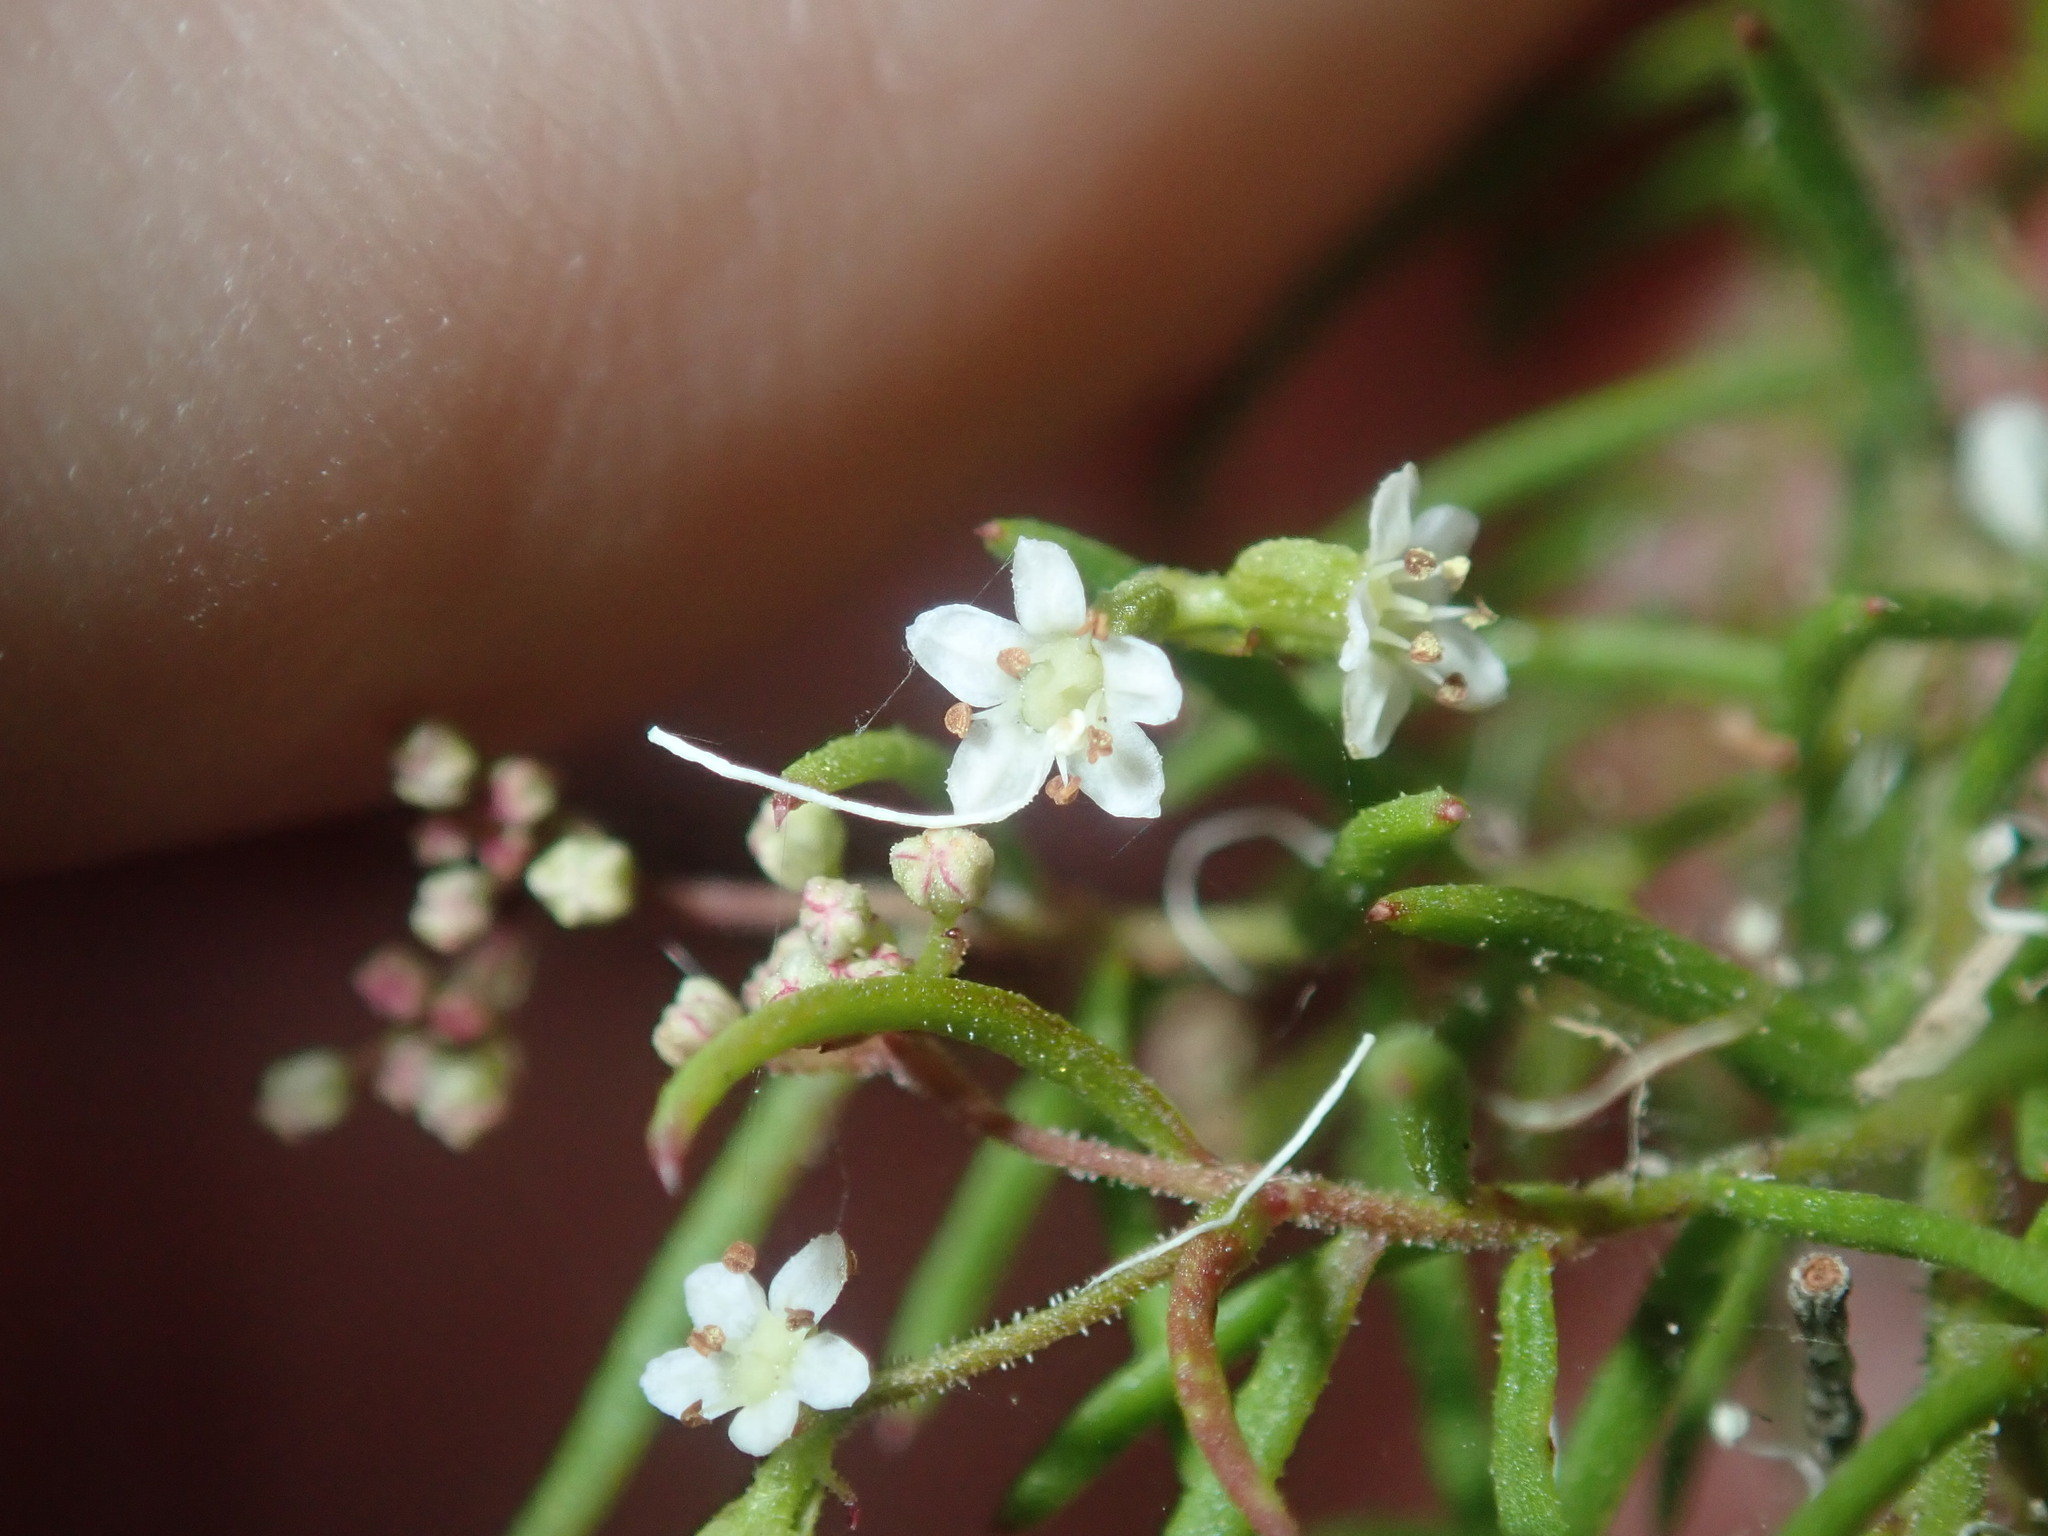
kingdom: Plantae
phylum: Tracheophyta
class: Magnoliopsida
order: Apiales
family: Apiaceae
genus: Platysace
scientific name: Platysace ericoides
